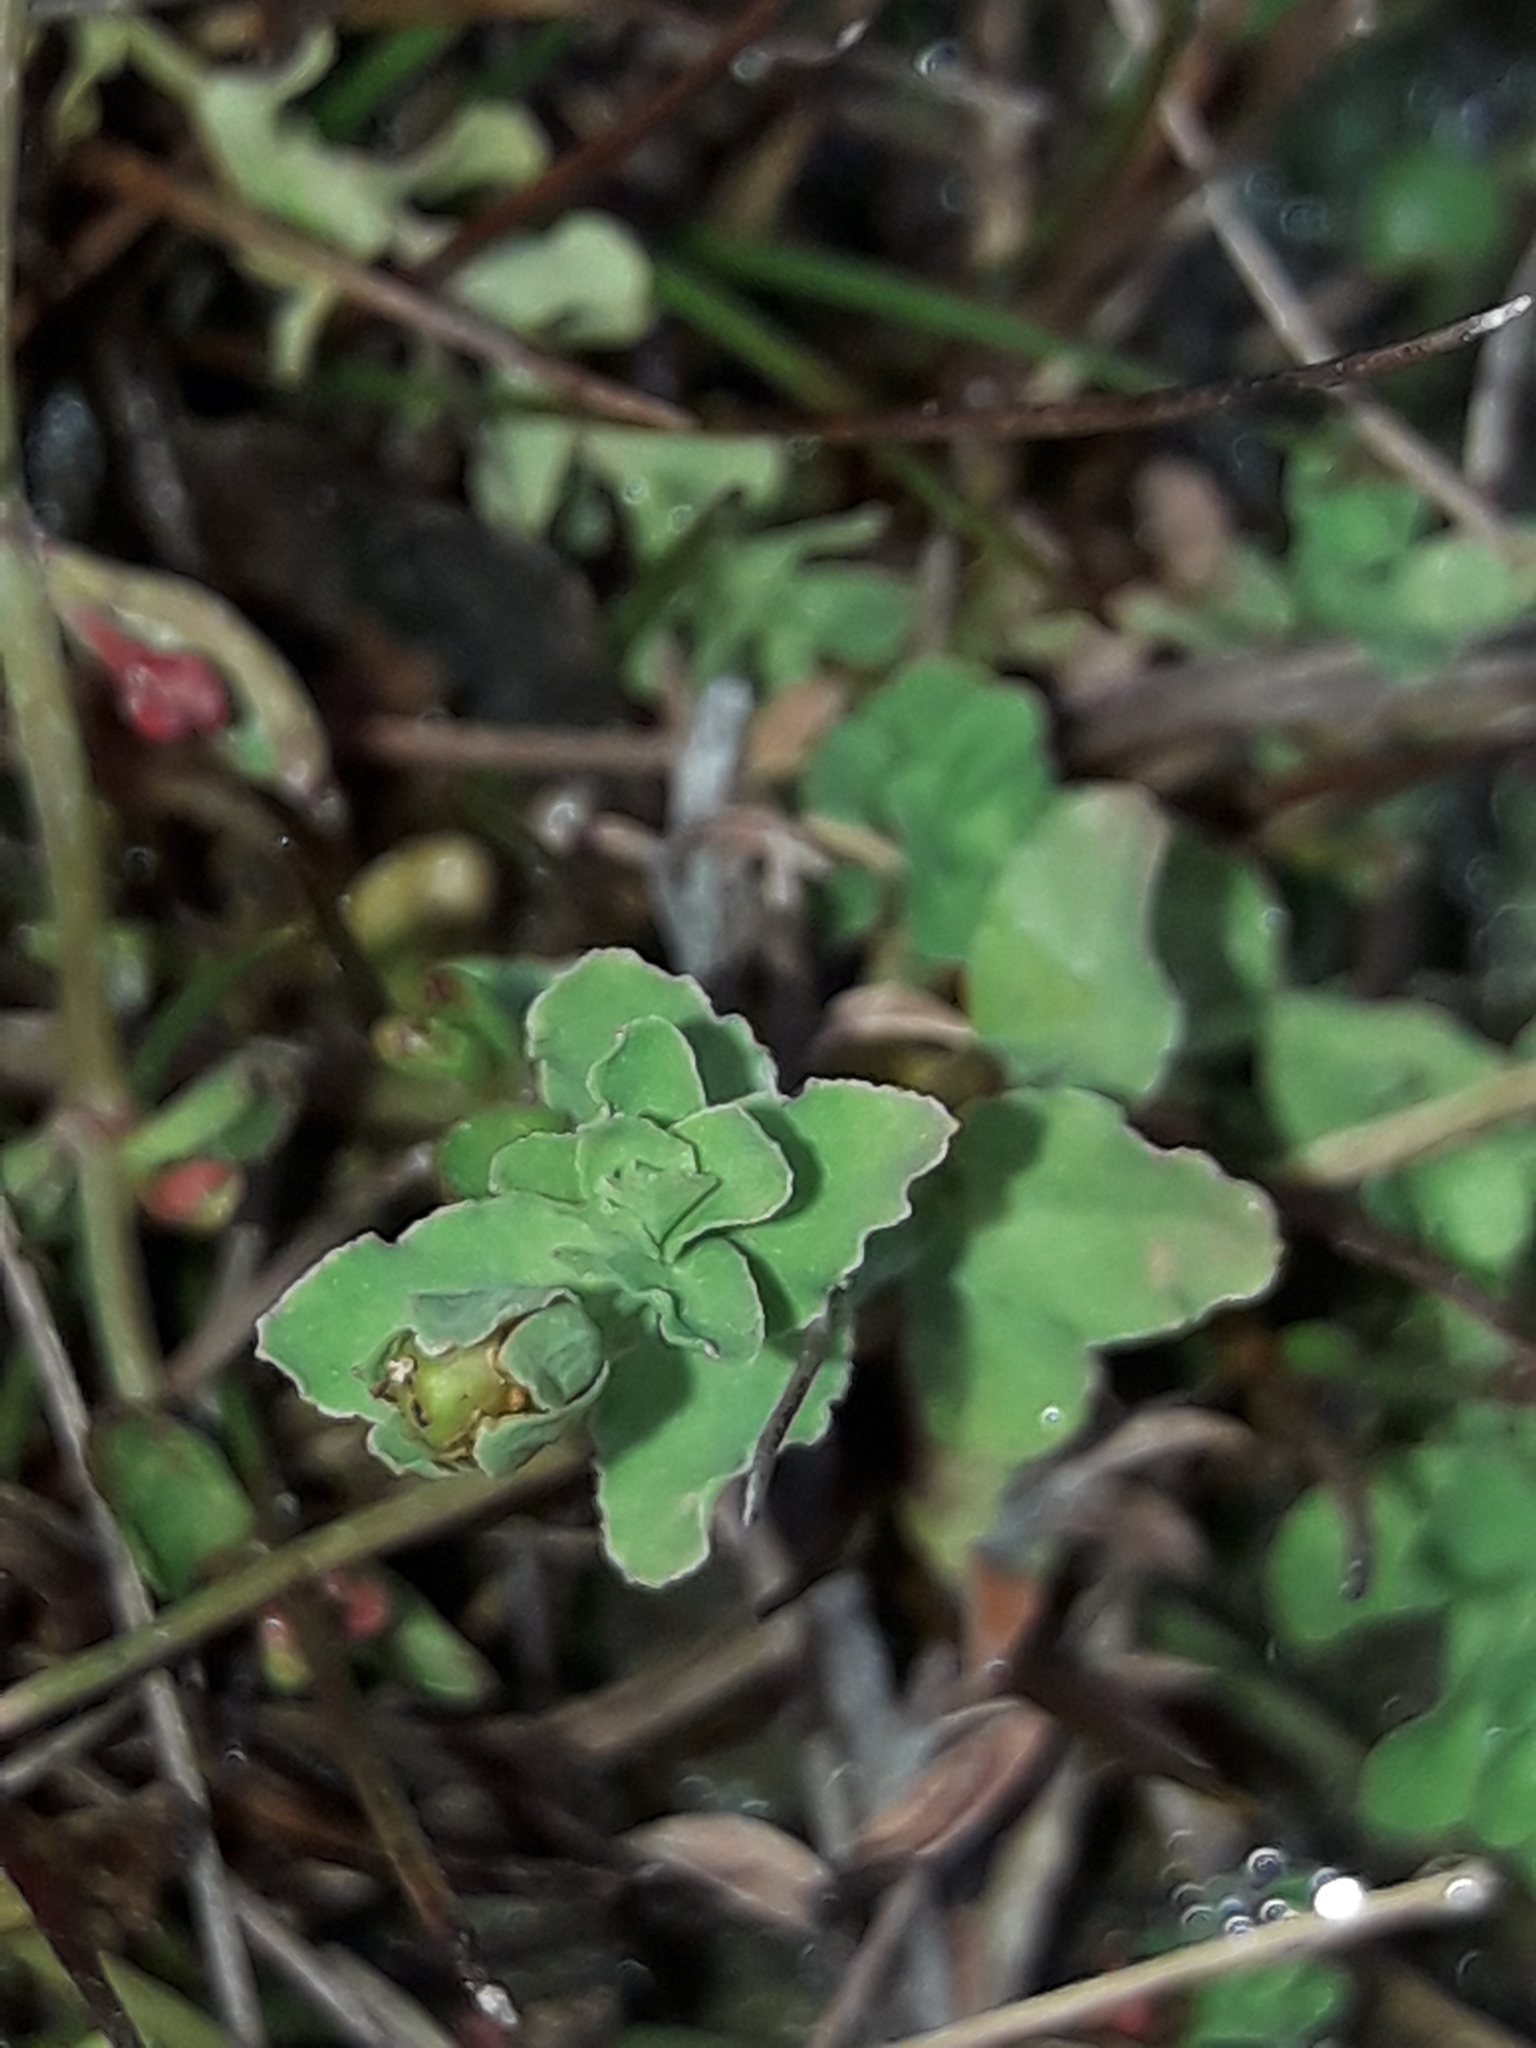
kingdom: Plantae
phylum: Tracheophyta
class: Magnoliopsida
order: Malpighiales
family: Hypericaceae
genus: Hypericum
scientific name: Hypericum japonicum
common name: Matted st. john's-wort
